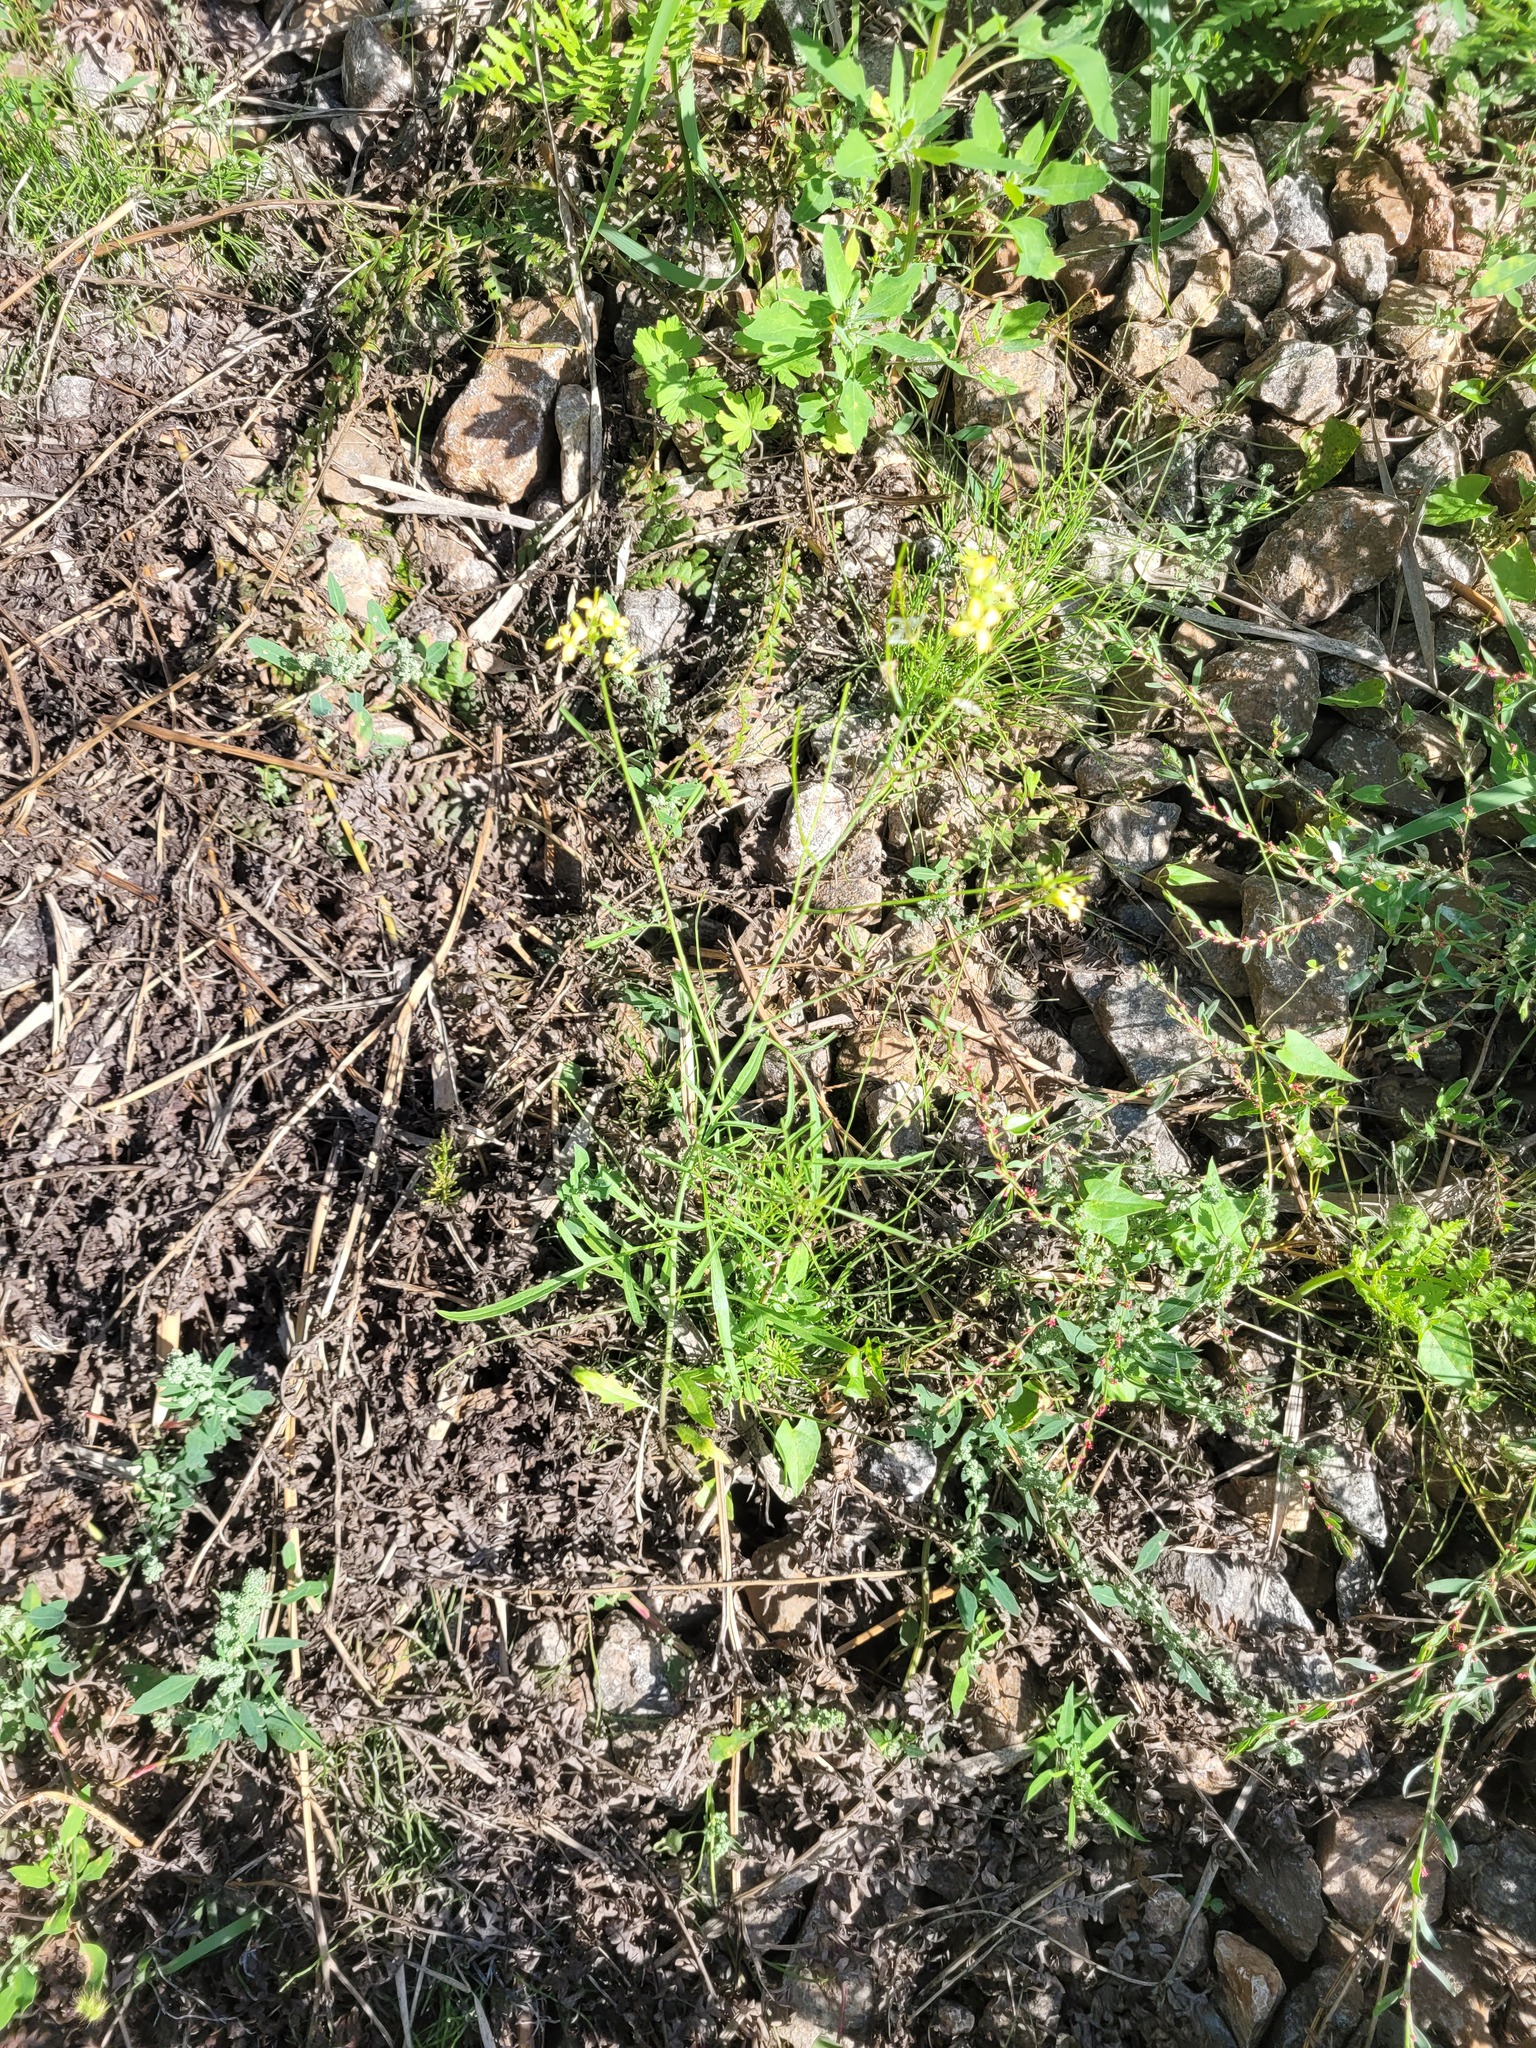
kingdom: Plantae
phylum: Tracheophyta
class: Magnoliopsida
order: Brassicales
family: Brassicaceae
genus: Sisymbrium
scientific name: Sisymbrium altissimum
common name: Tall rocket
